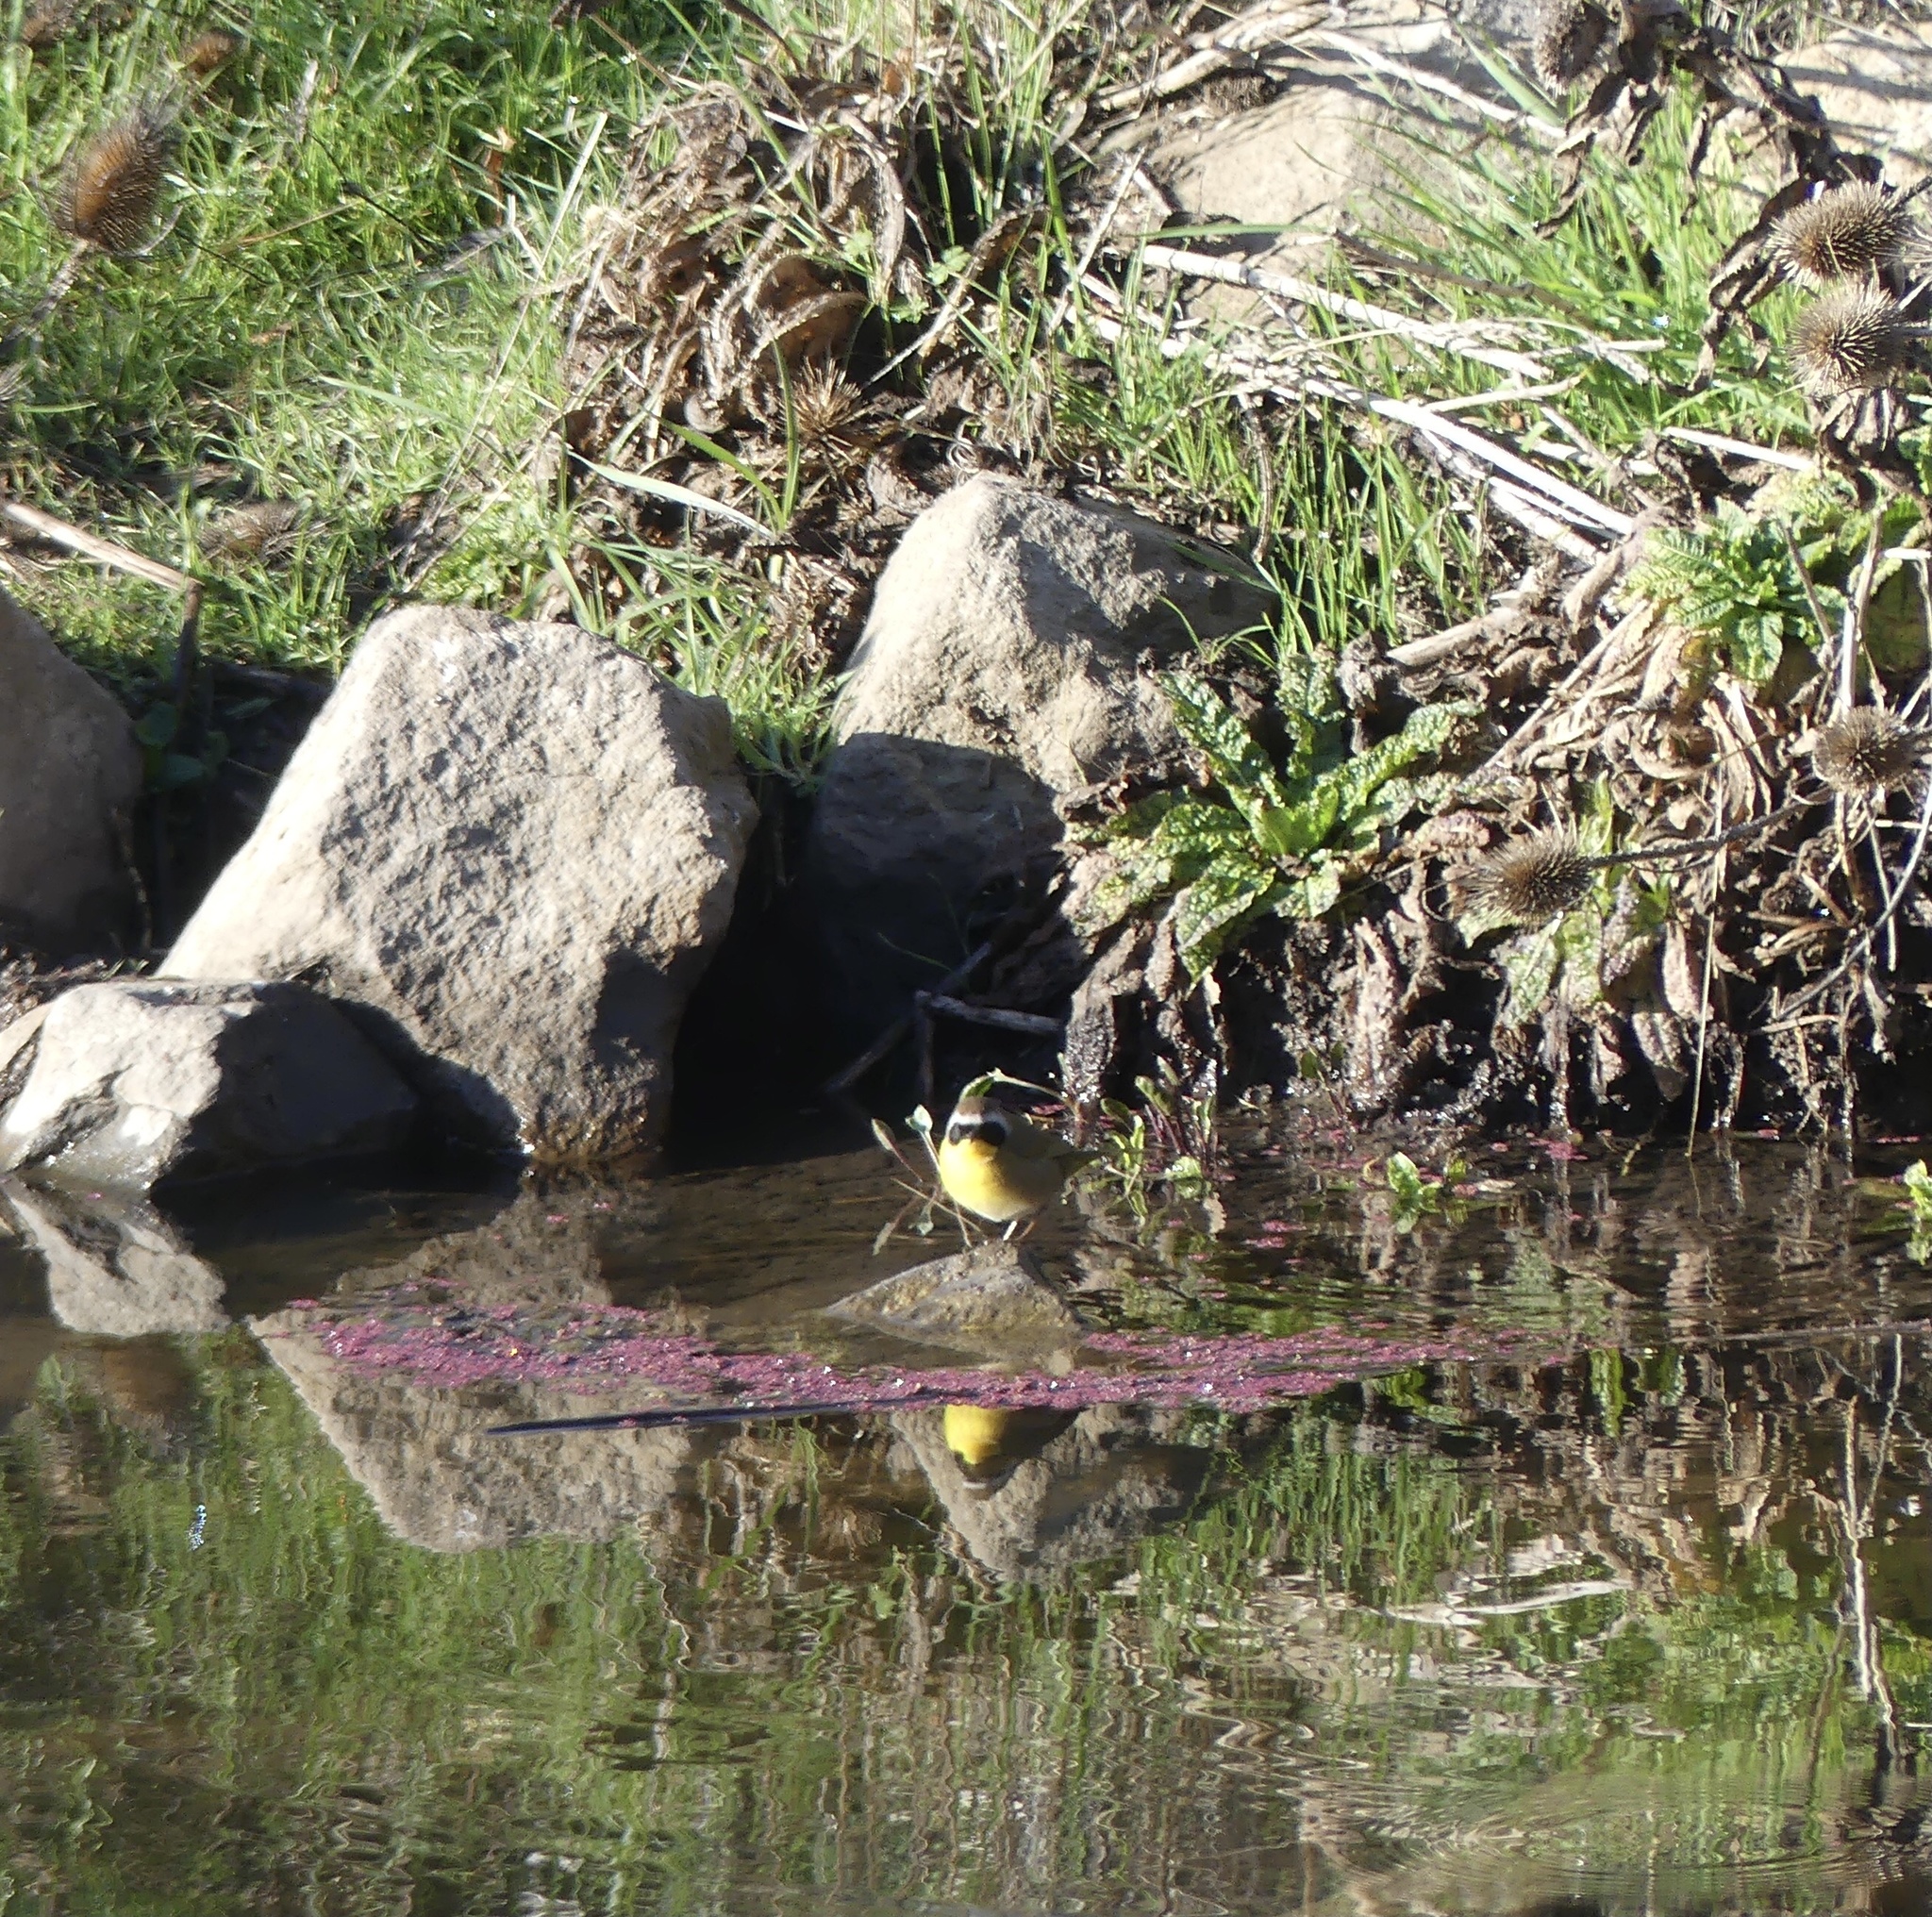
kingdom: Animalia
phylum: Chordata
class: Aves
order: Passeriformes
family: Parulidae
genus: Geothlypis
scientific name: Geothlypis trichas
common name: Common yellowthroat
